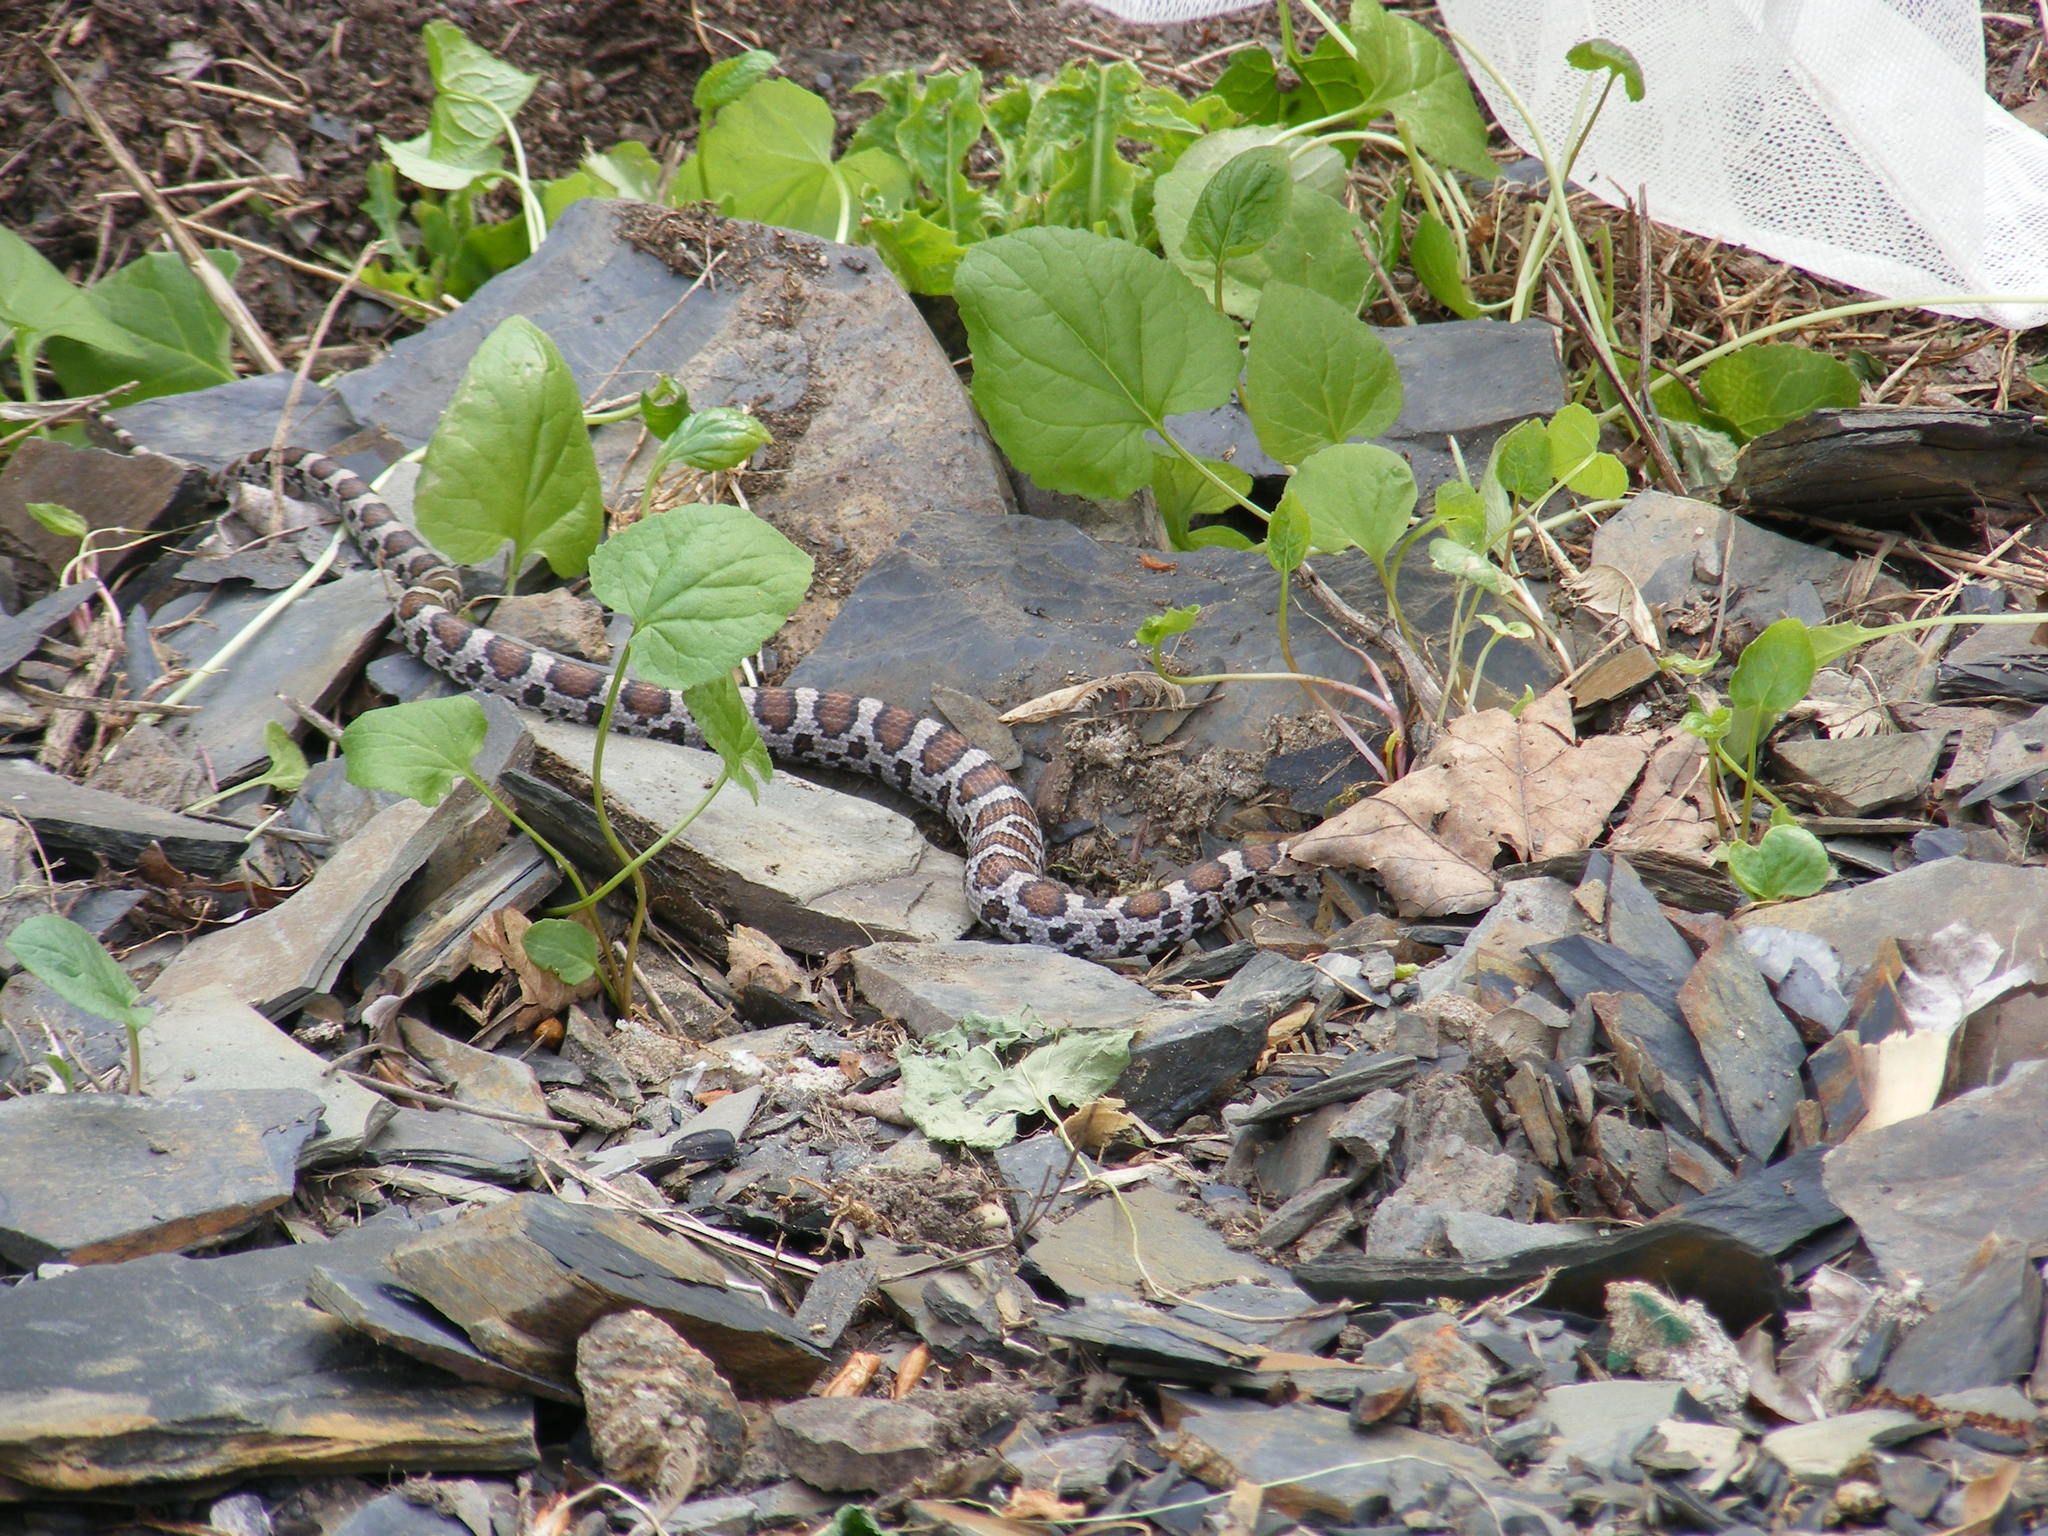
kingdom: Animalia
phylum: Chordata
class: Squamata
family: Colubridae
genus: Lampropeltis
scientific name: Lampropeltis triangulum
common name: Eastern milksnake
